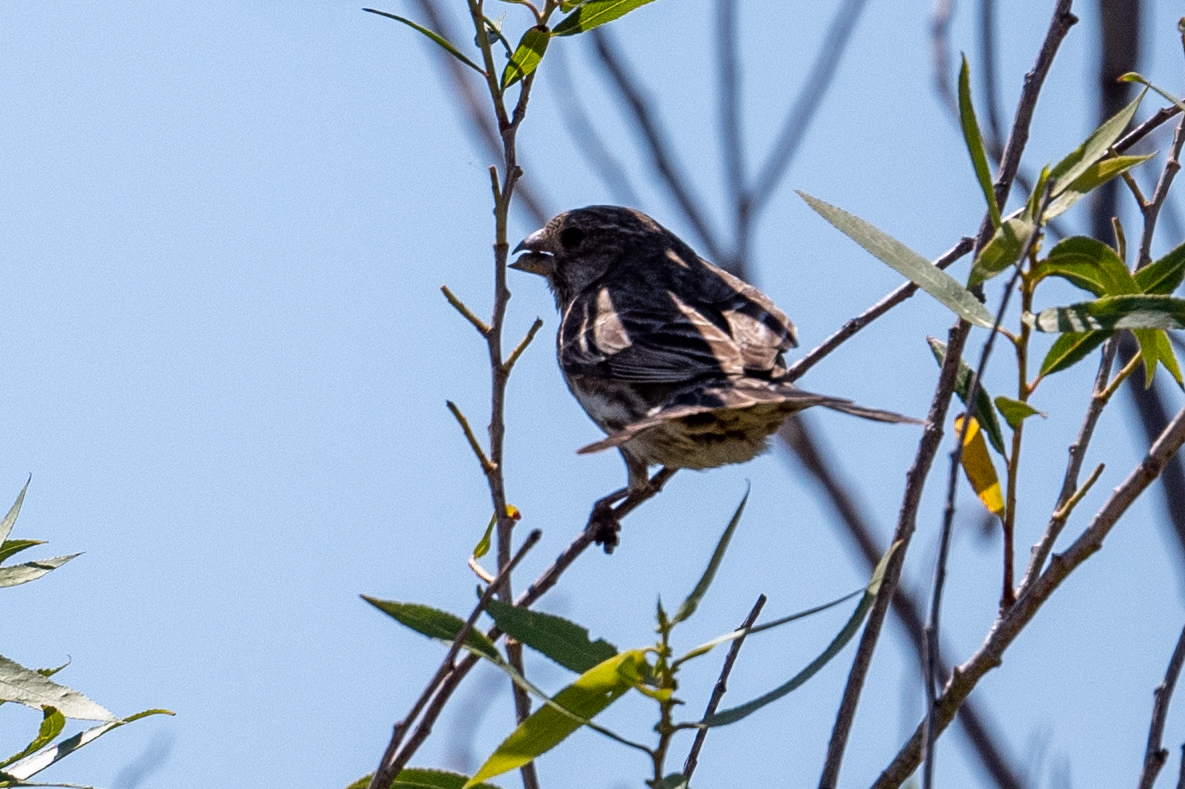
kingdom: Animalia
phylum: Chordata
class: Aves
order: Passeriformes
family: Fringillidae
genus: Haemorhous
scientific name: Haemorhous mexicanus
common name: House finch
